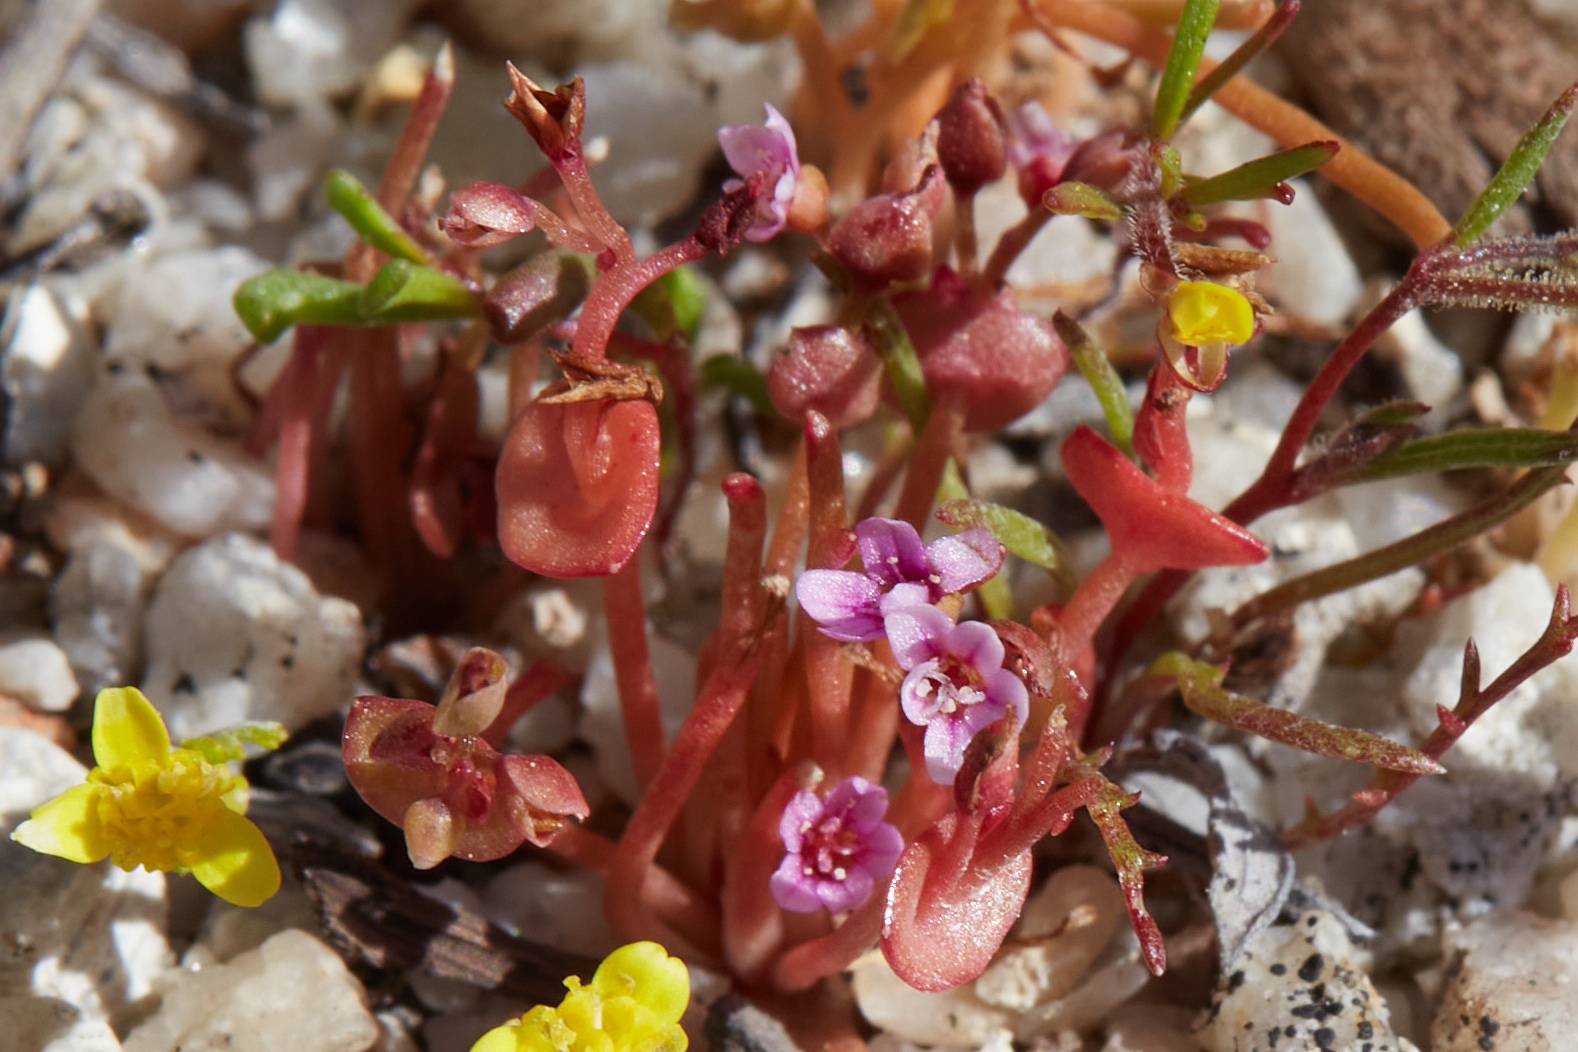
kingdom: Plantae
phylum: Tracheophyta
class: Magnoliopsida
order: Caryophyllales
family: Montiaceae
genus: Claytonia
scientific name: Claytonia parviflora
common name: Indian-lettuce
